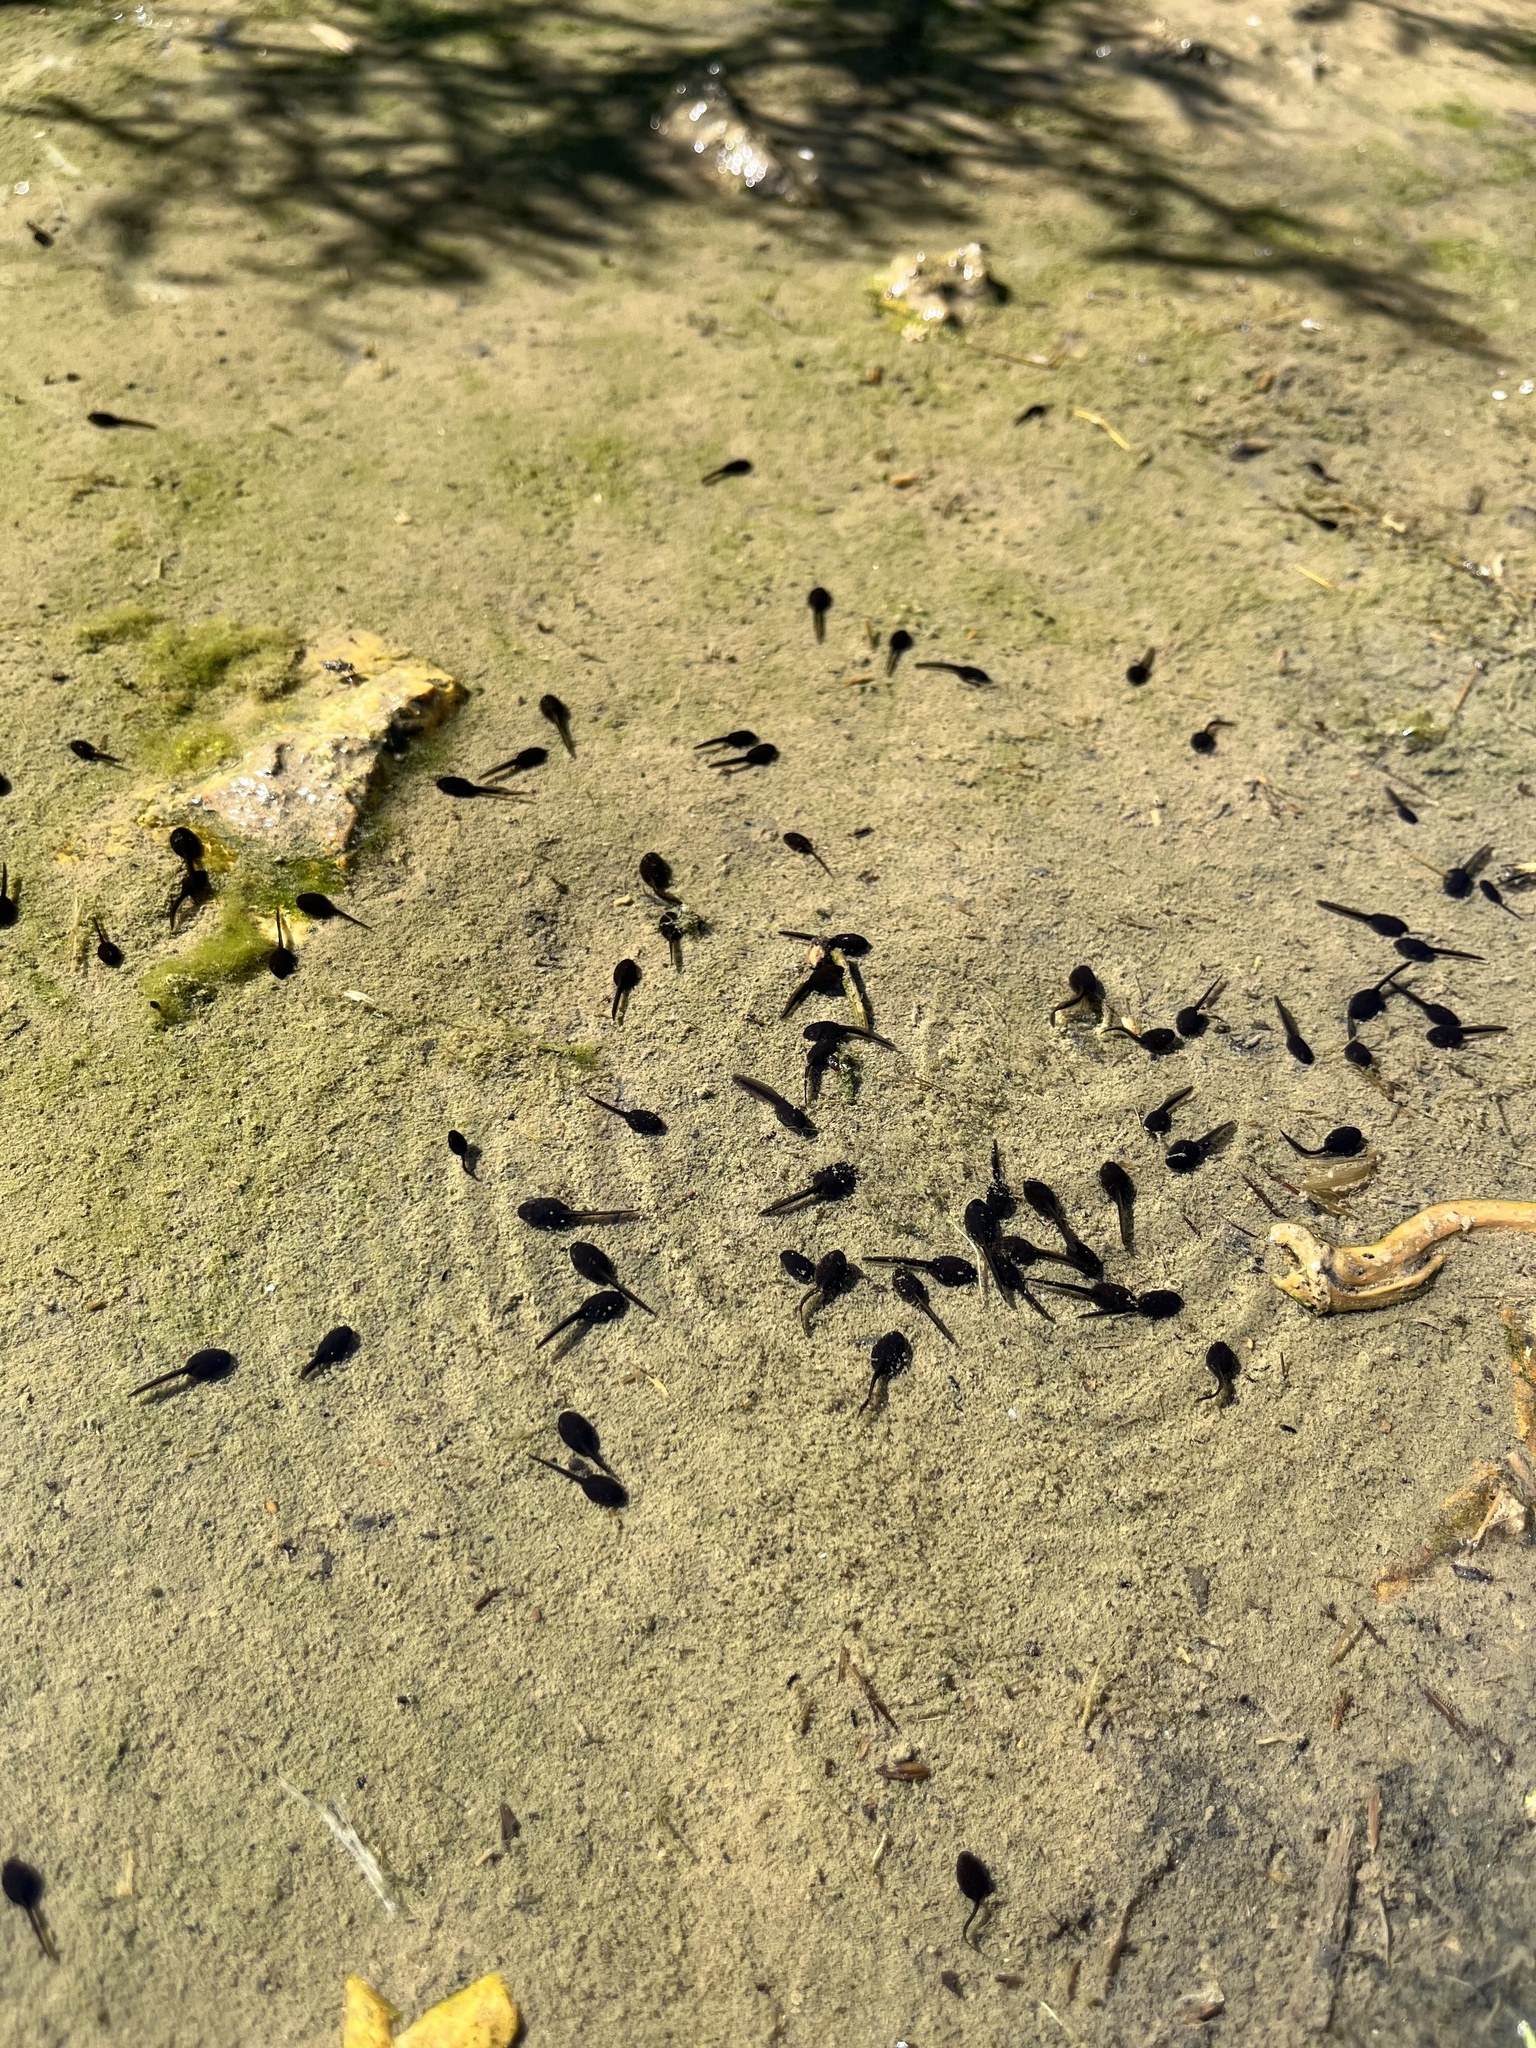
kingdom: Animalia
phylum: Chordata
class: Amphibia
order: Anura
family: Bufonidae
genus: Anaxyrus
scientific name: Anaxyrus boreas
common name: Western toad
